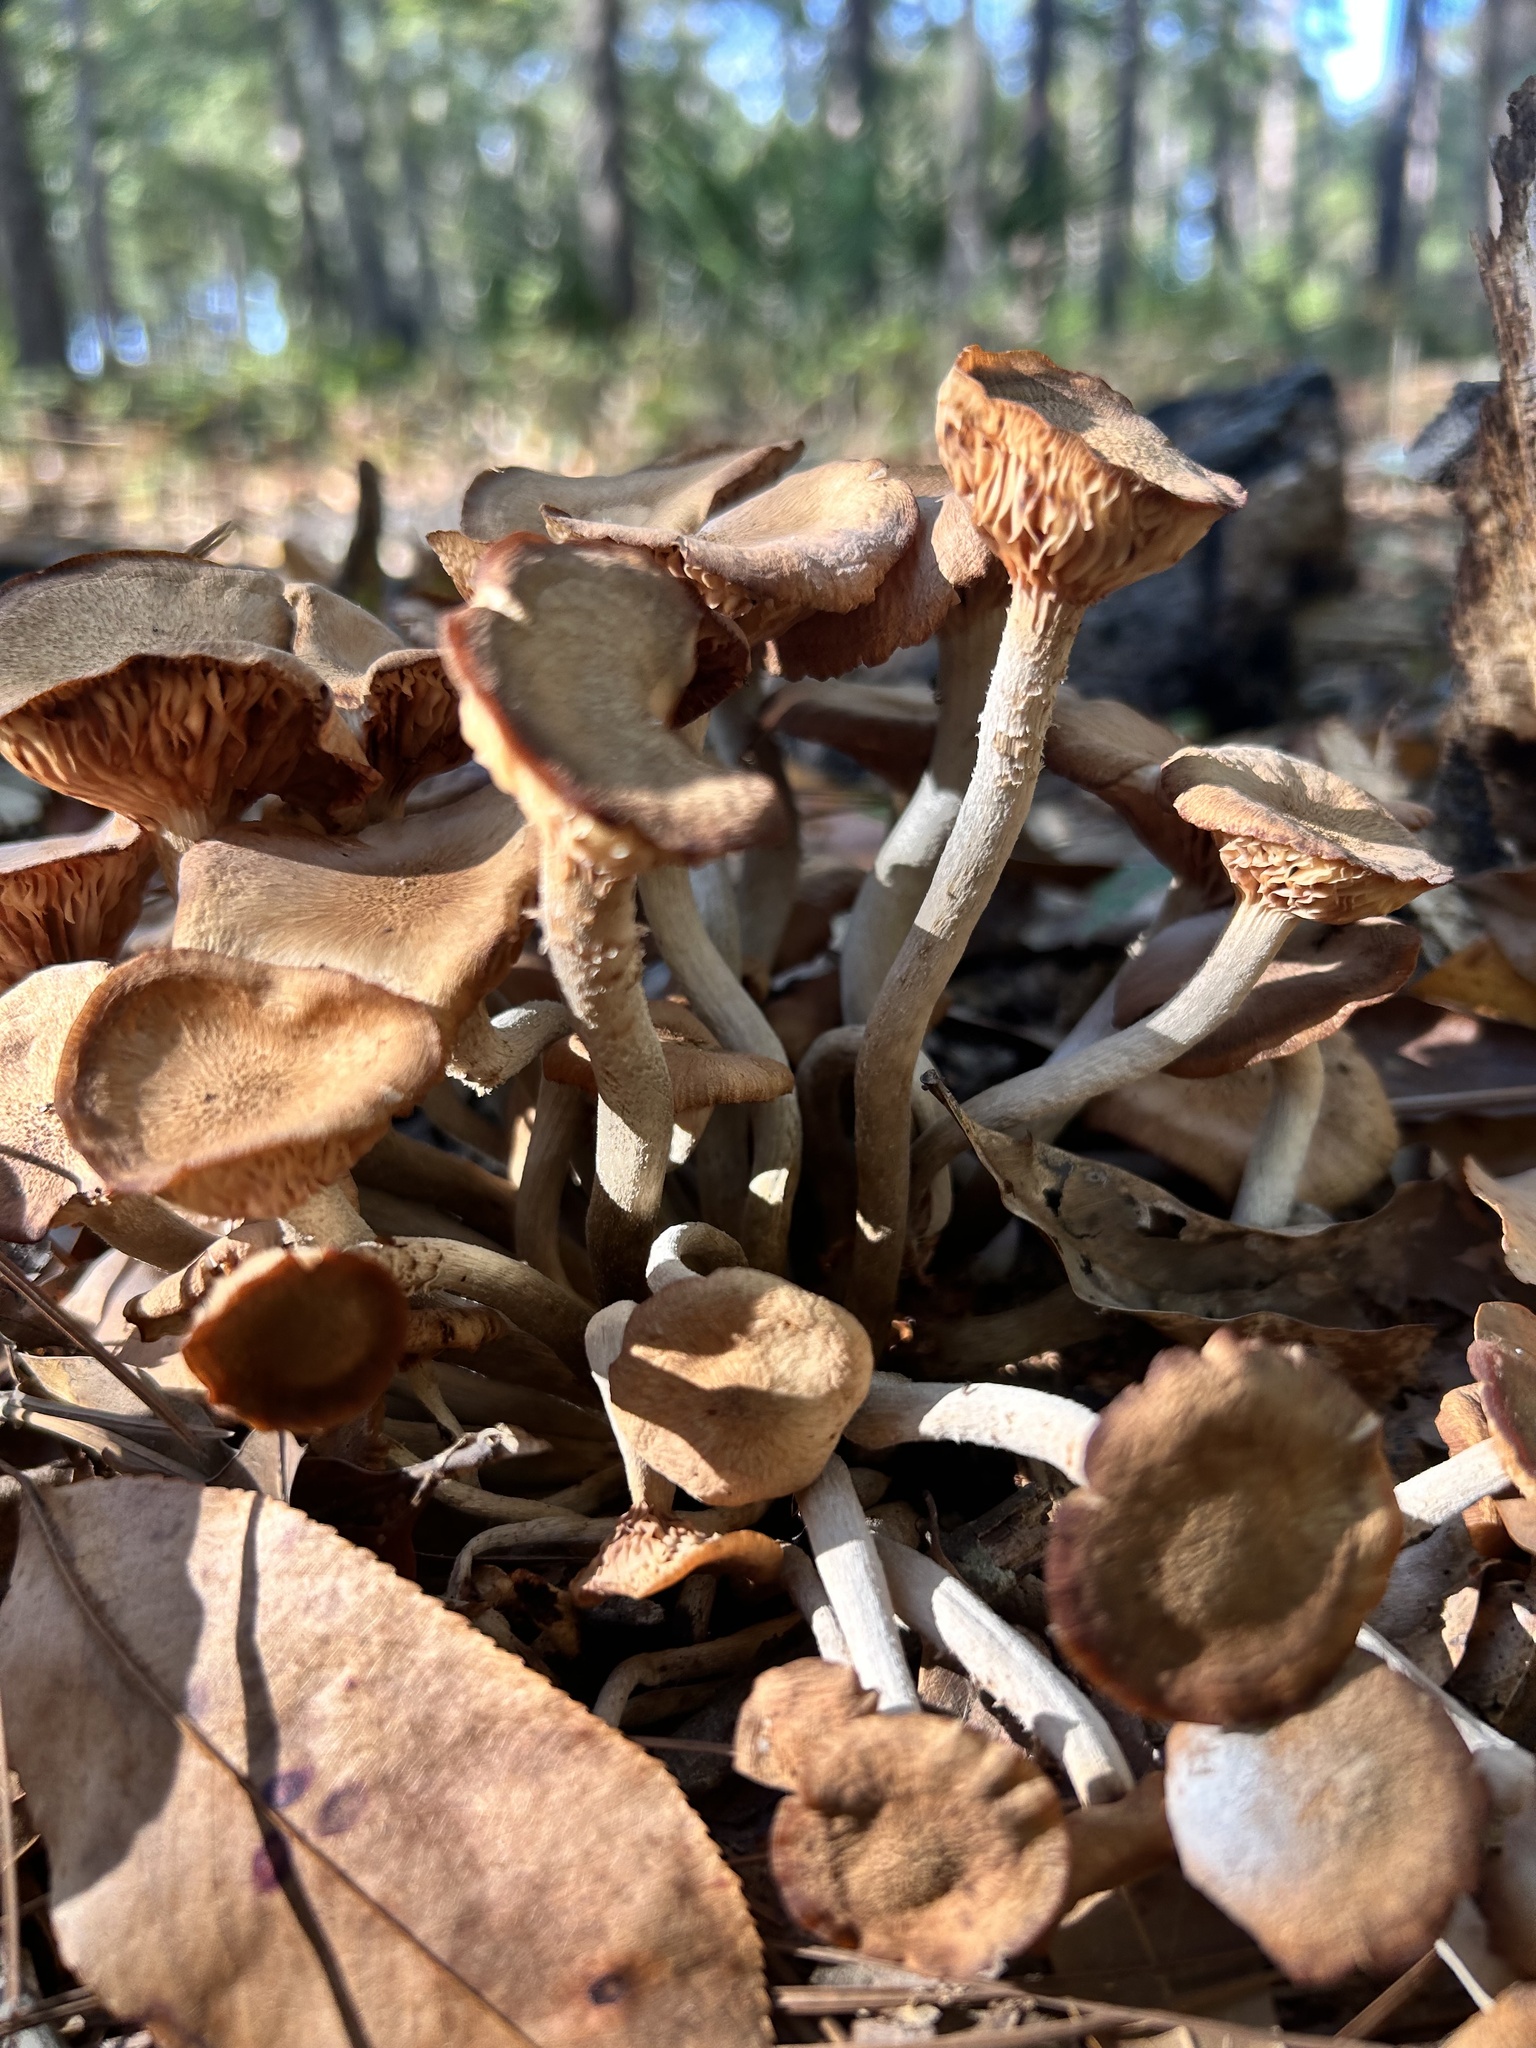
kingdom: Fungi
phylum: Basidiomycota
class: Agaricomycetes
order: Agaricales
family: Physalacriaceae
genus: Desarmillaria
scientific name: Desarmillaria caespitosa
